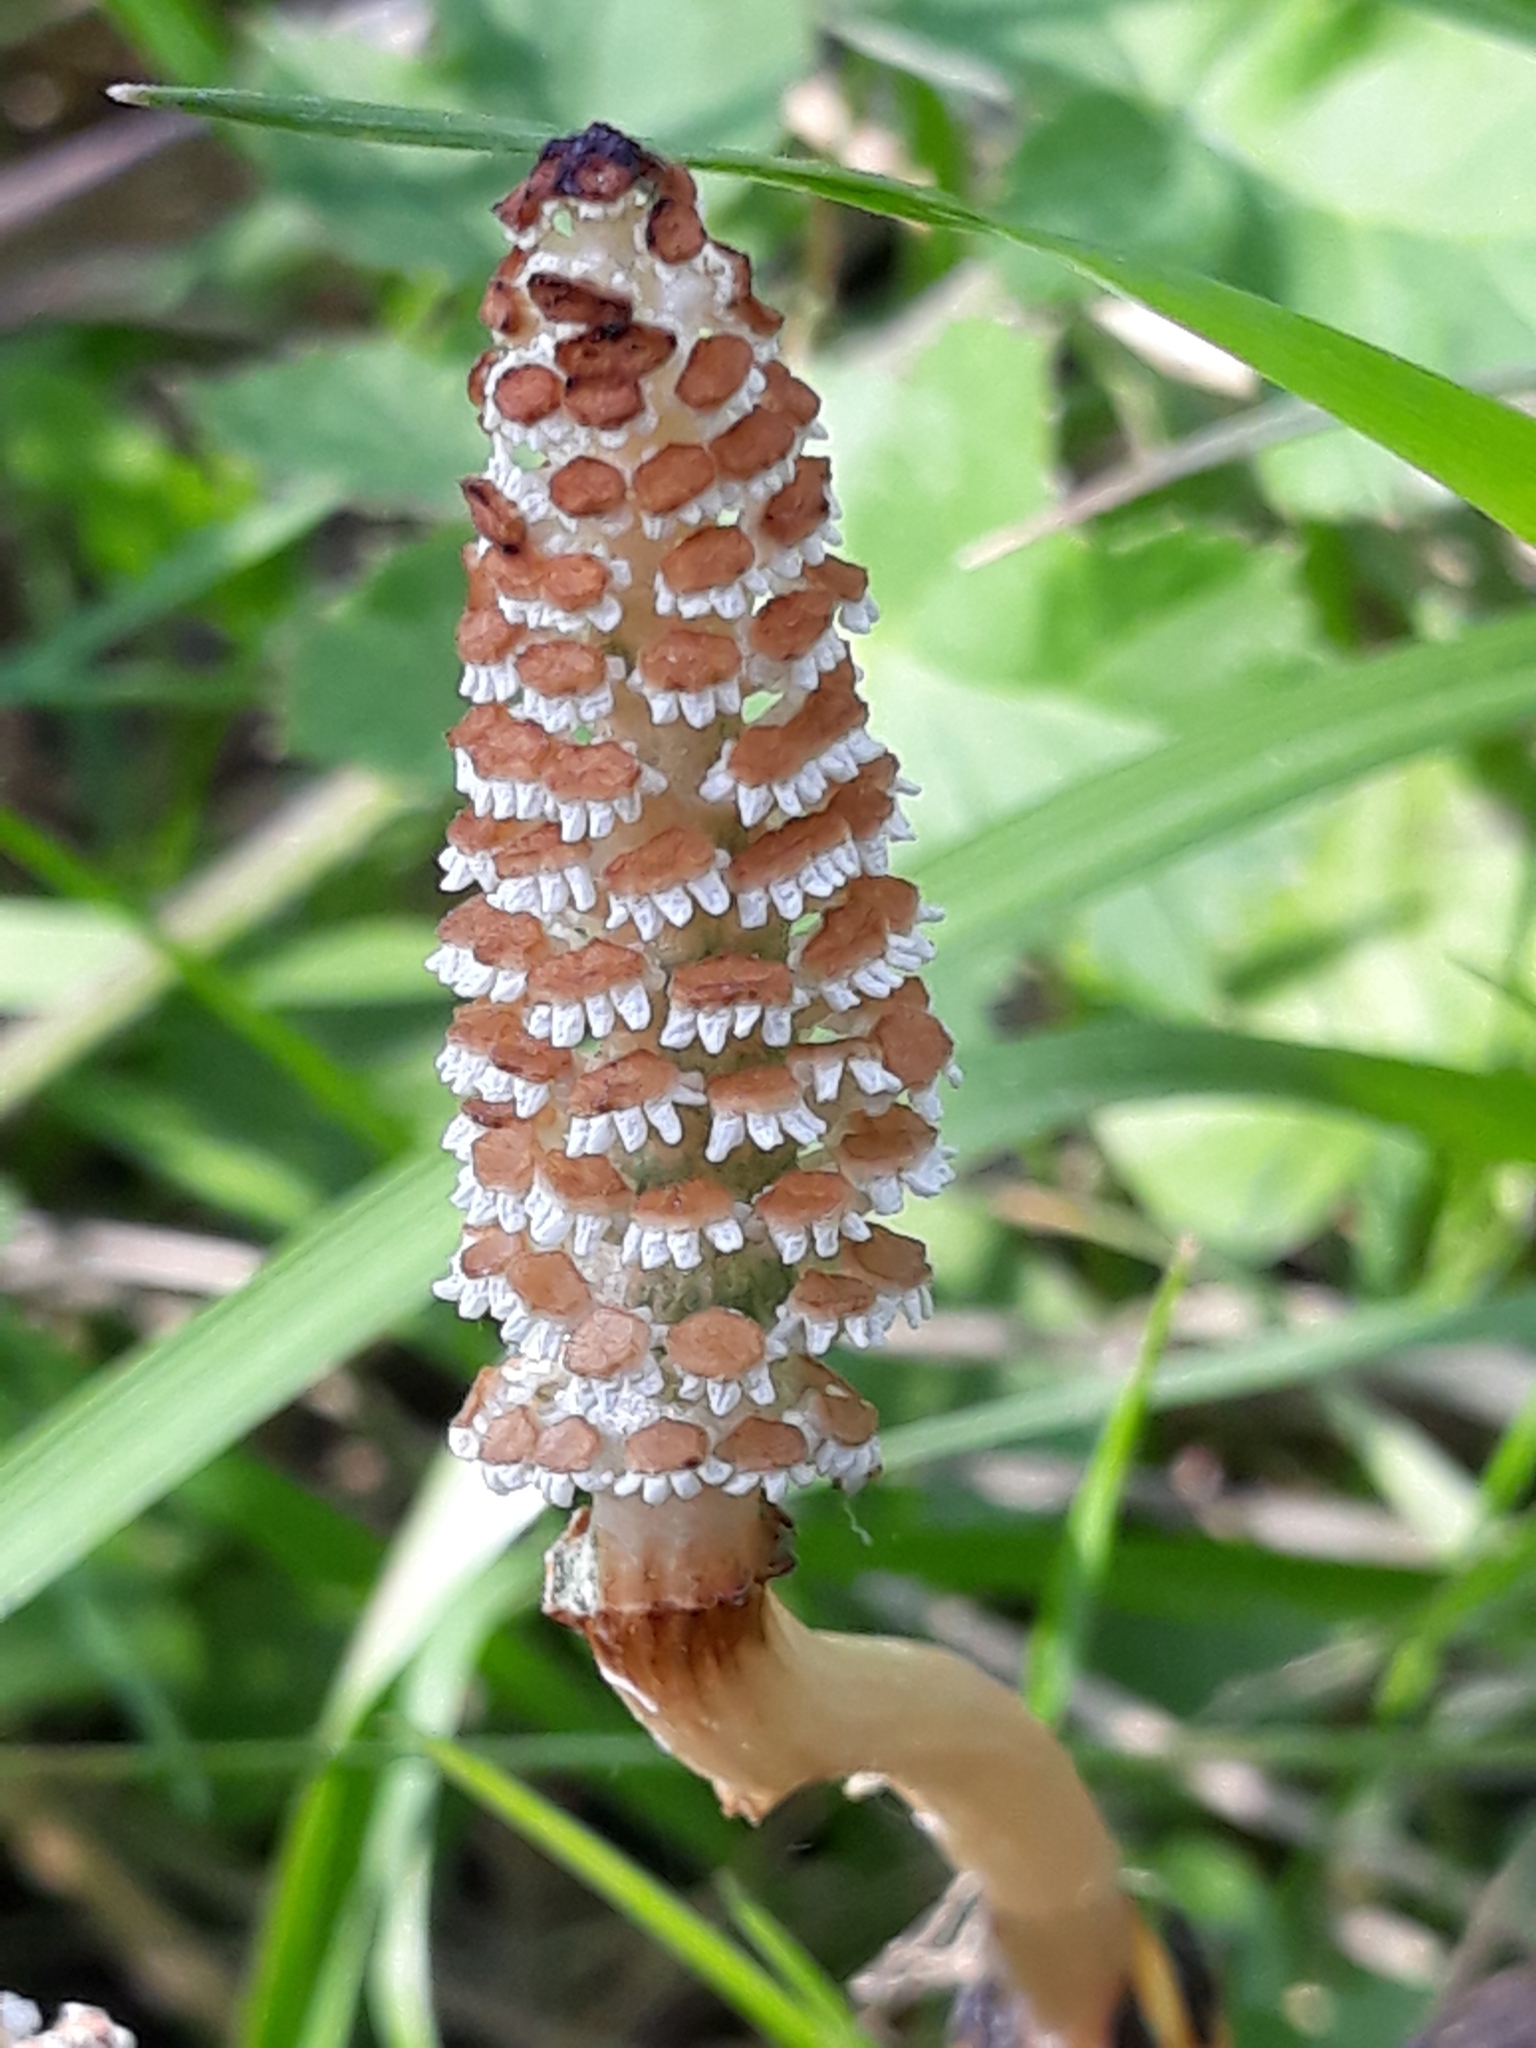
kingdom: Plantae
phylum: Tracheophyta
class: Polypodiopsida
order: Equisetales
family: Equisetaceae
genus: Equisetum
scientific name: Equisetum arvense
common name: Field horsetail
